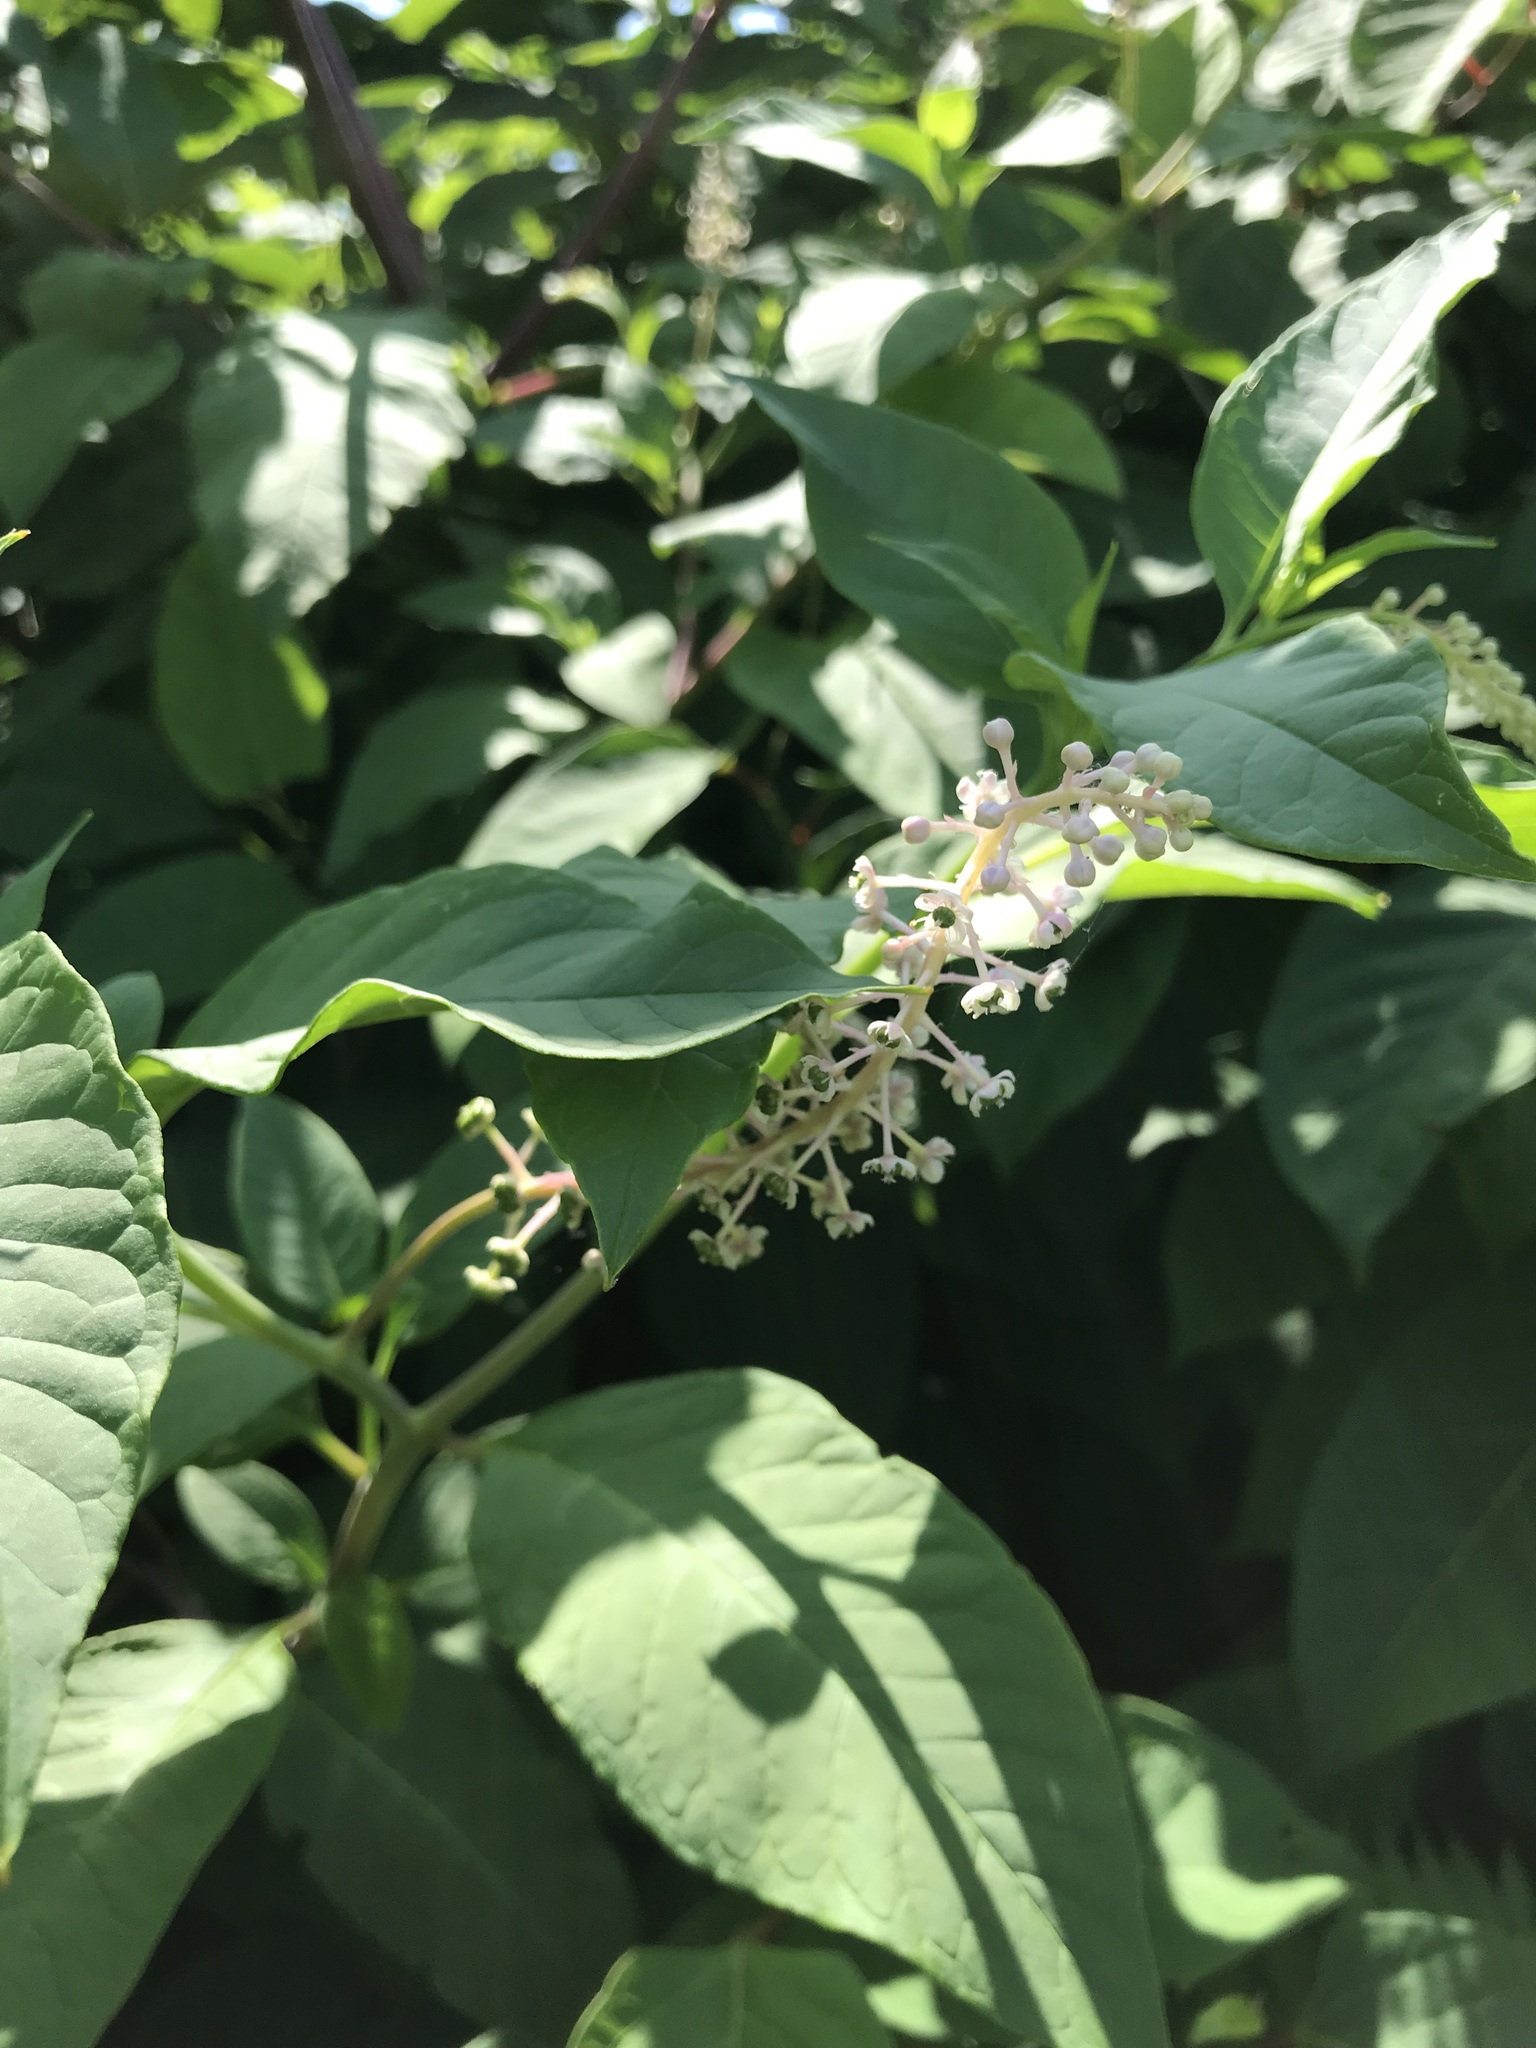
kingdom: Plantae
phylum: Tracheophyta
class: Magnoliopsida
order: Caryophyllales
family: Phytolaccaceae
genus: Phytolacca
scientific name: Phytolacca americana
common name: American pokeweed
